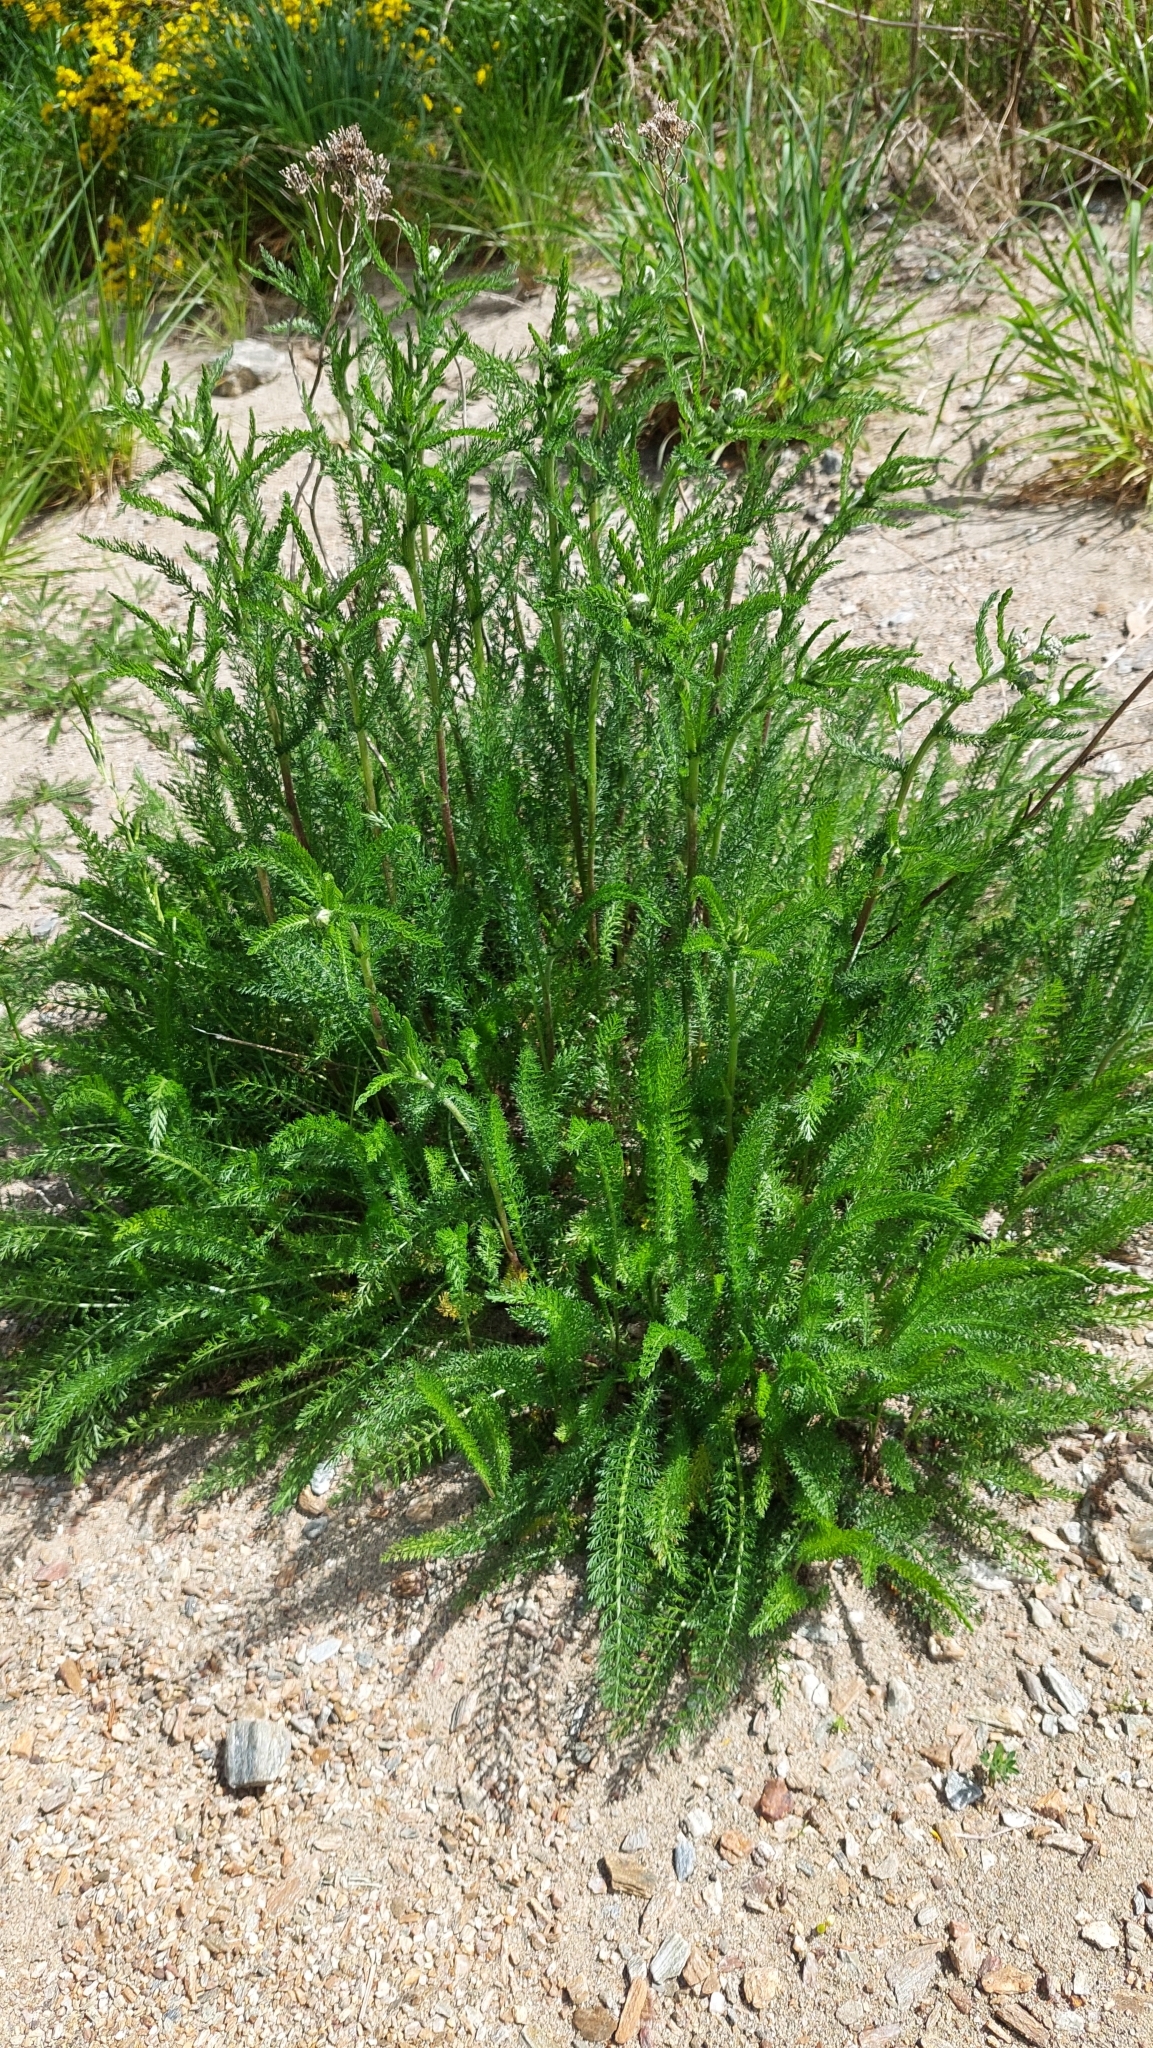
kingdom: Plantae
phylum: Tracheophyta
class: Magnoliopsida
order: Asterales
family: Asteraceae
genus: Achillea
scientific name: Achillea millefolium
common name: Yarrow
